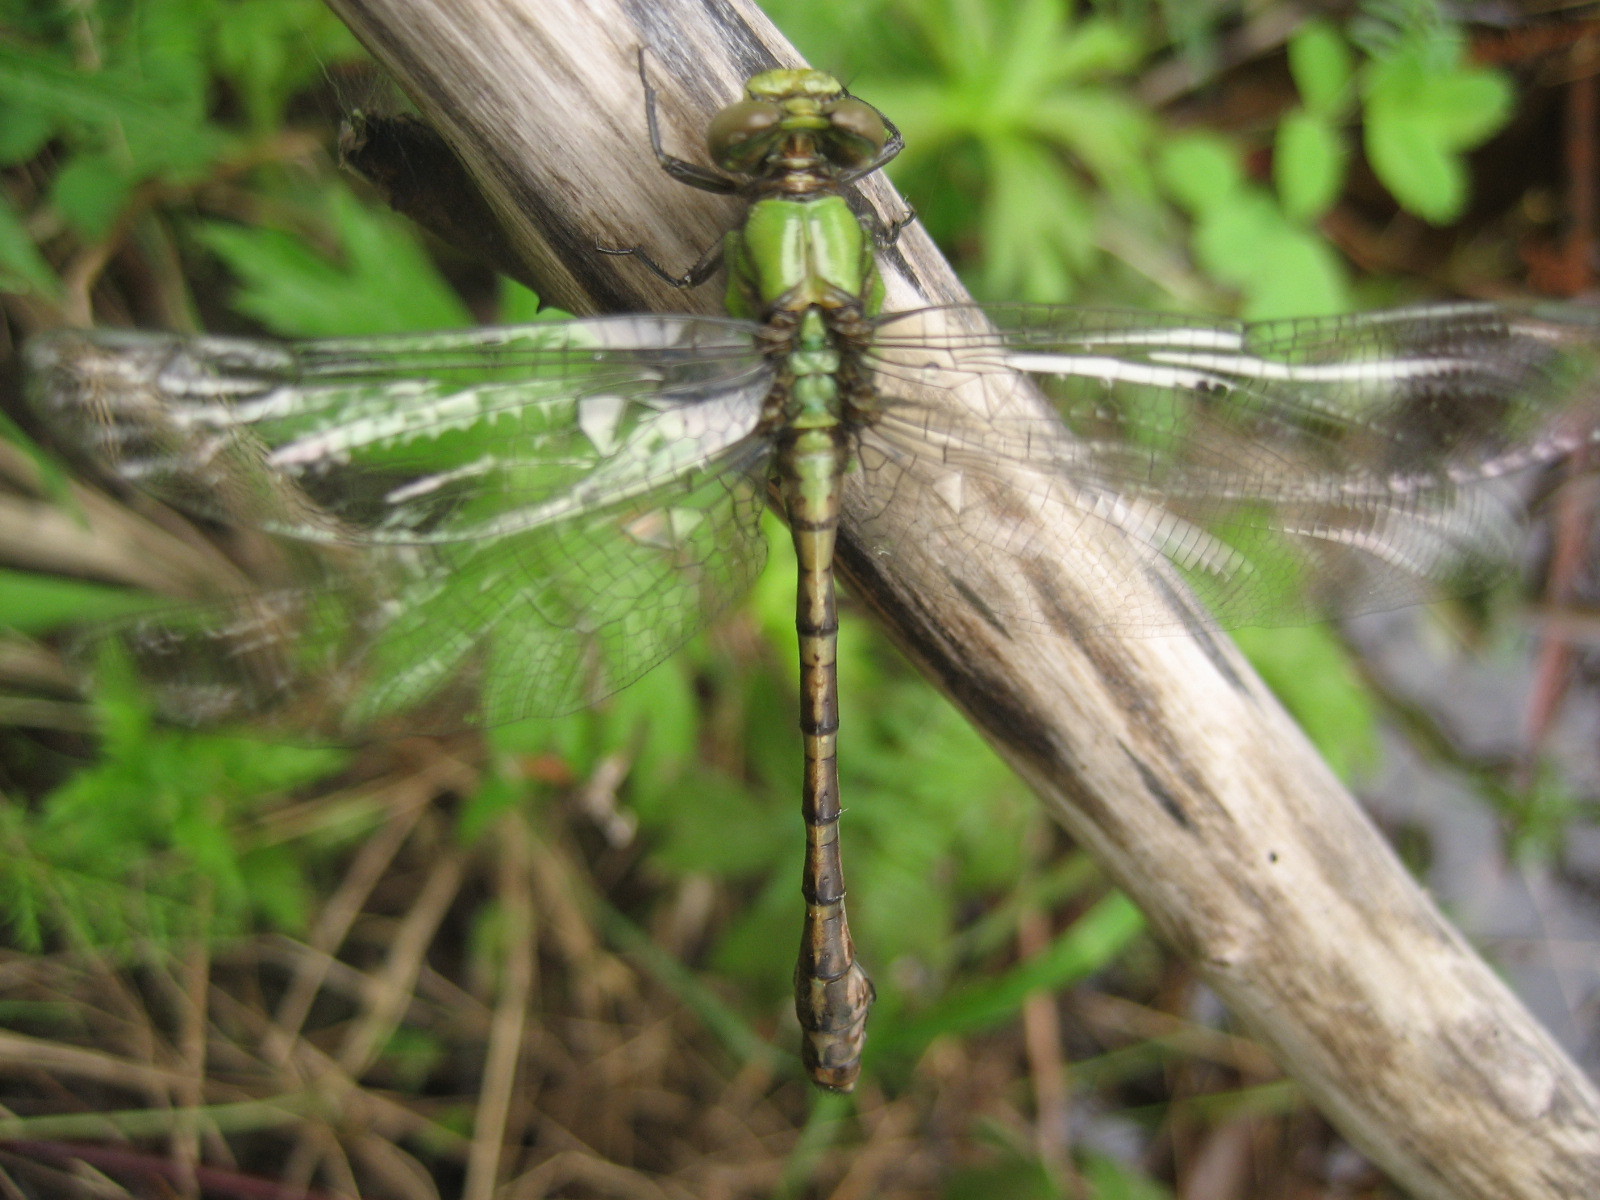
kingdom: Animalia
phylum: Arthropoda
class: Insecta
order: Odonata
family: Gomphidae
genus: Ophiogomphus
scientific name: Ophiogomphus rupinsulensis
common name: Rusty snaketail
